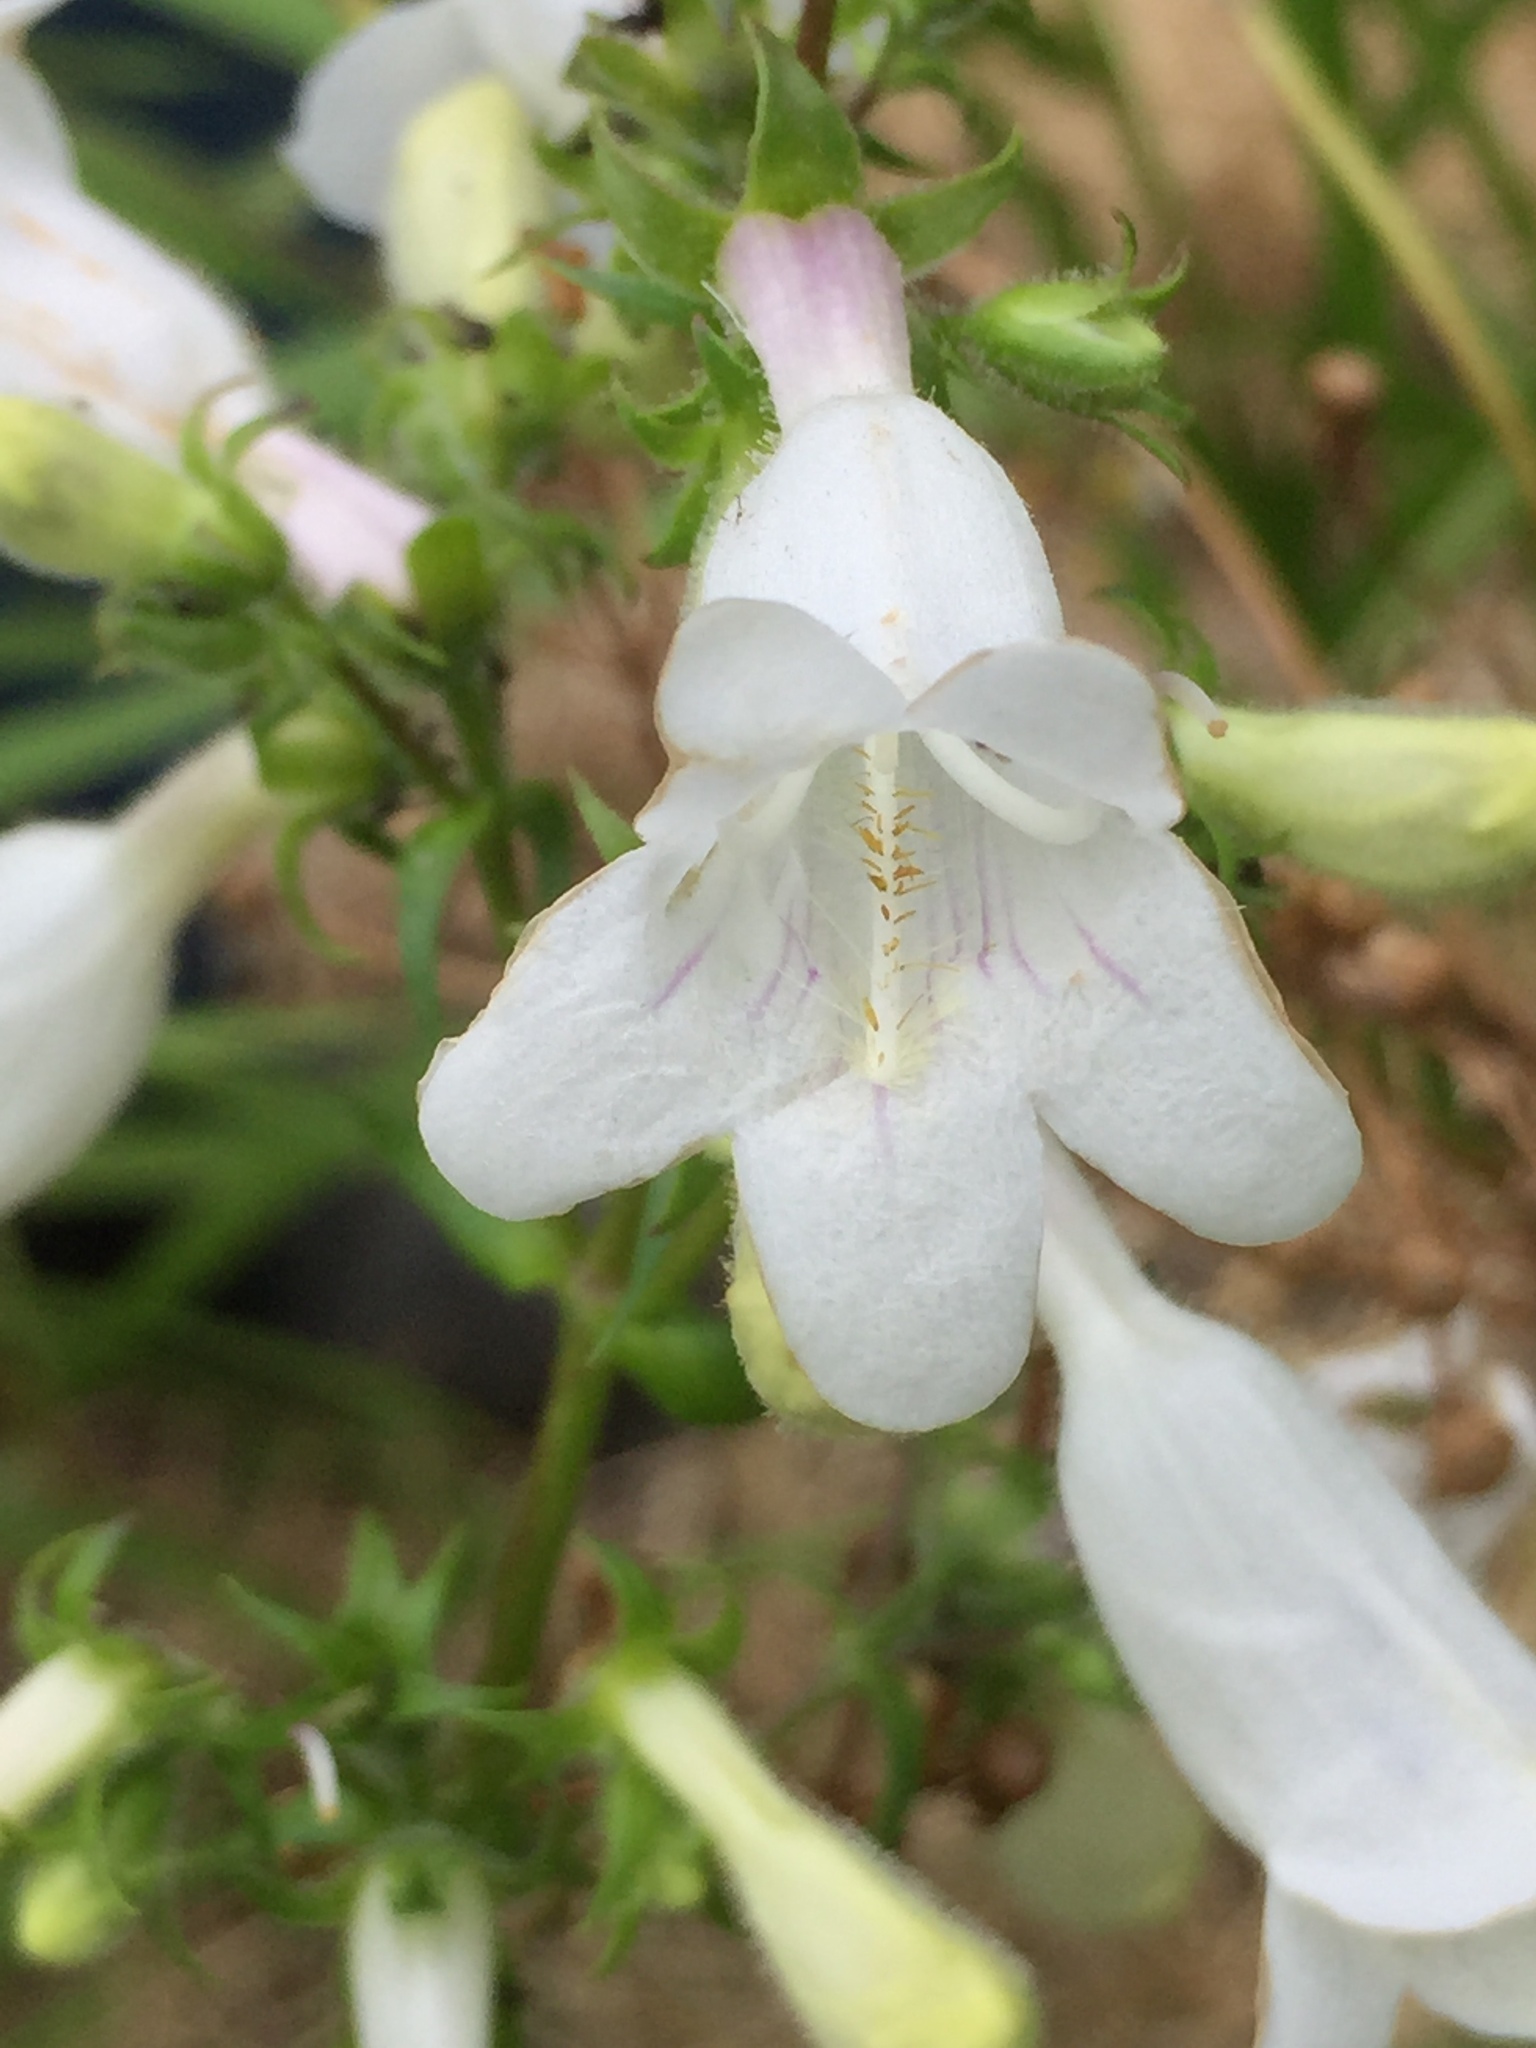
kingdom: Plantae
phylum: Tracheophyta
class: Magnoliopsida
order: Lamiales
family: Plantaginaceae
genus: Penstemon
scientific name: Penstemon digitalis
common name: Foxglove beardtongue
